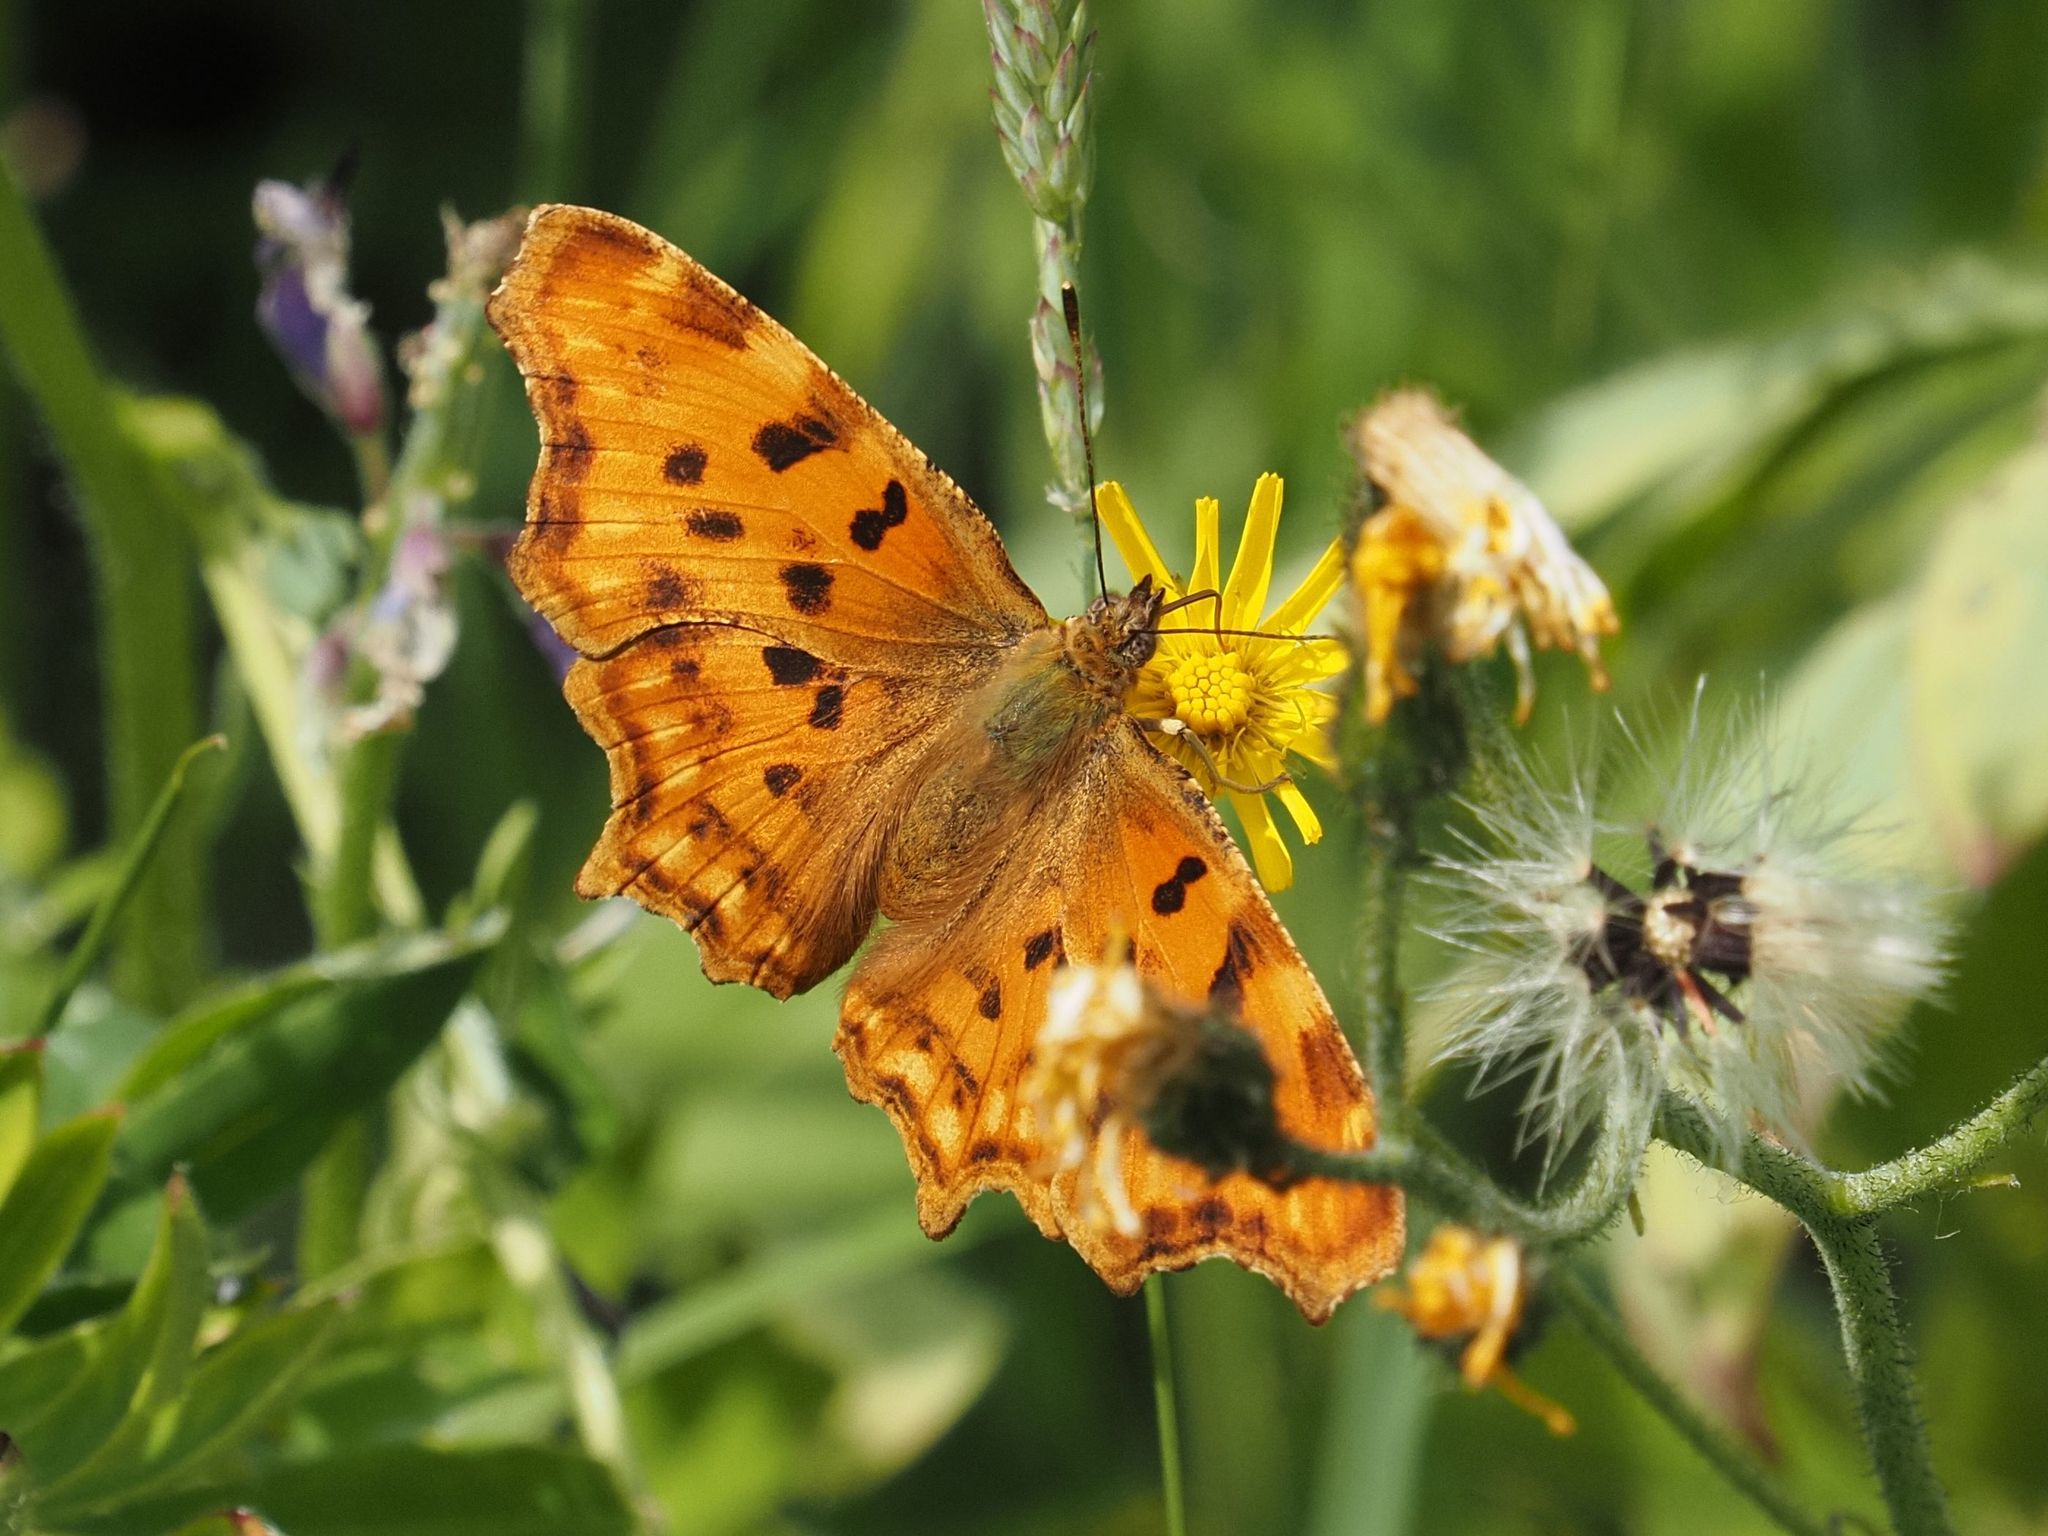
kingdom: Animalia
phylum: Arthropoda
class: Insecta
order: Lepidoptera
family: Nymphalidae
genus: Polygonia
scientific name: Polygonia c-album
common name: Comma
